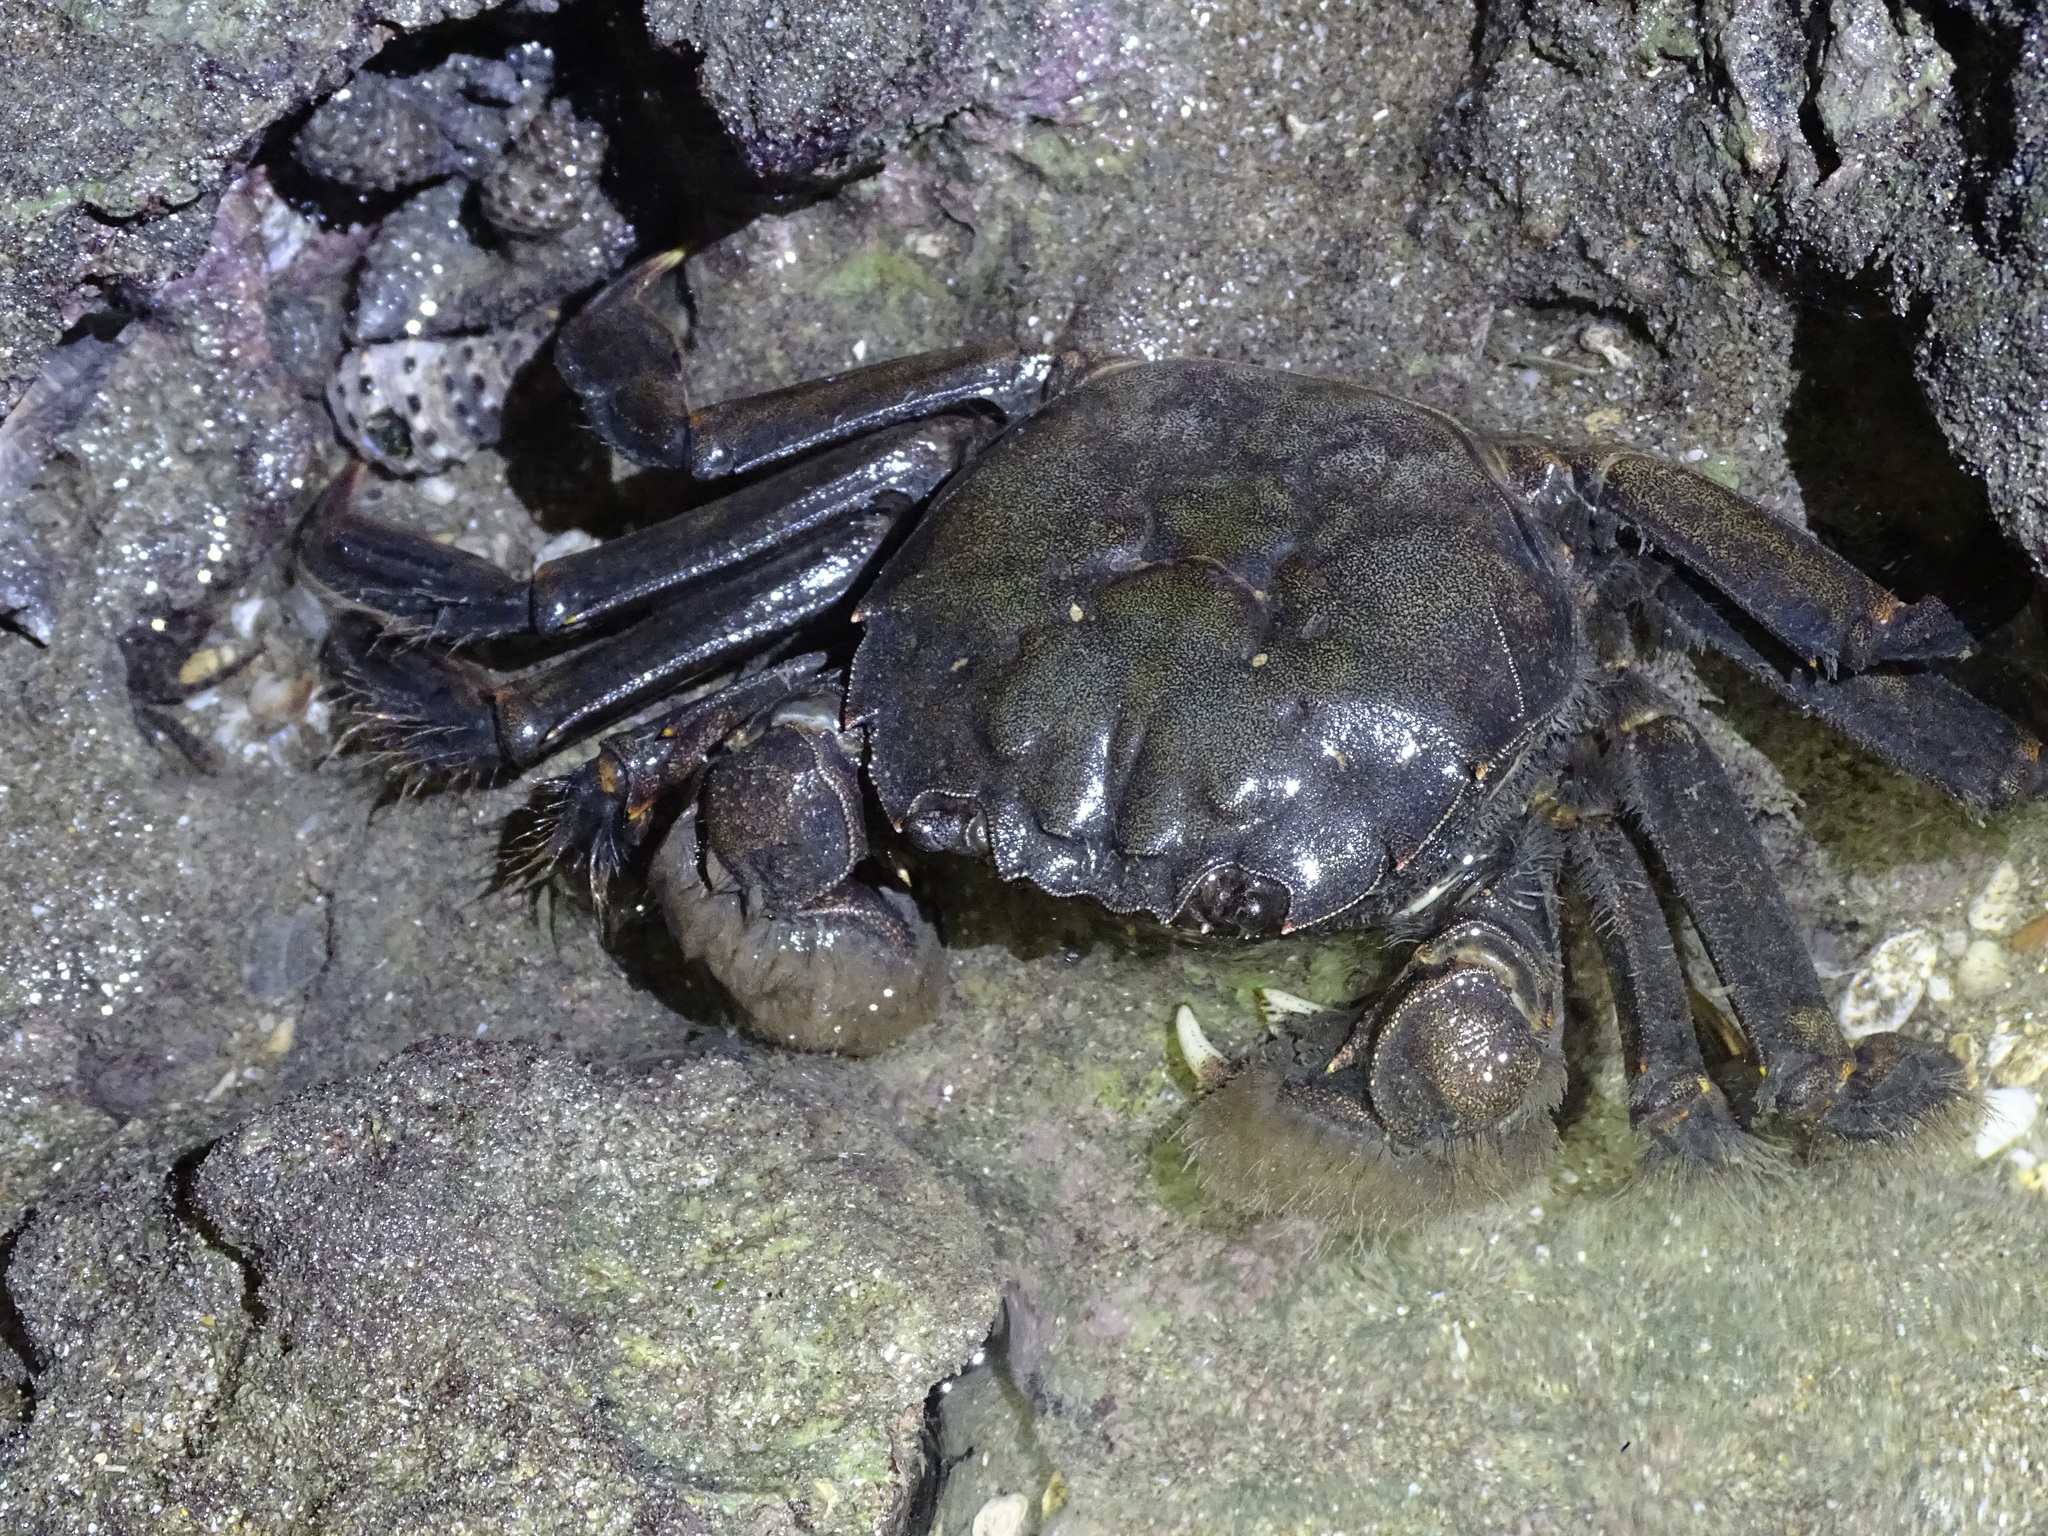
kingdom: Animalia
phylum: Arthropoda
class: Malacostraca
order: Decapoda
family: Varunidae
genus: Eriocheir
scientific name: Eriocheir japonica
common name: Japanese mitten crab
